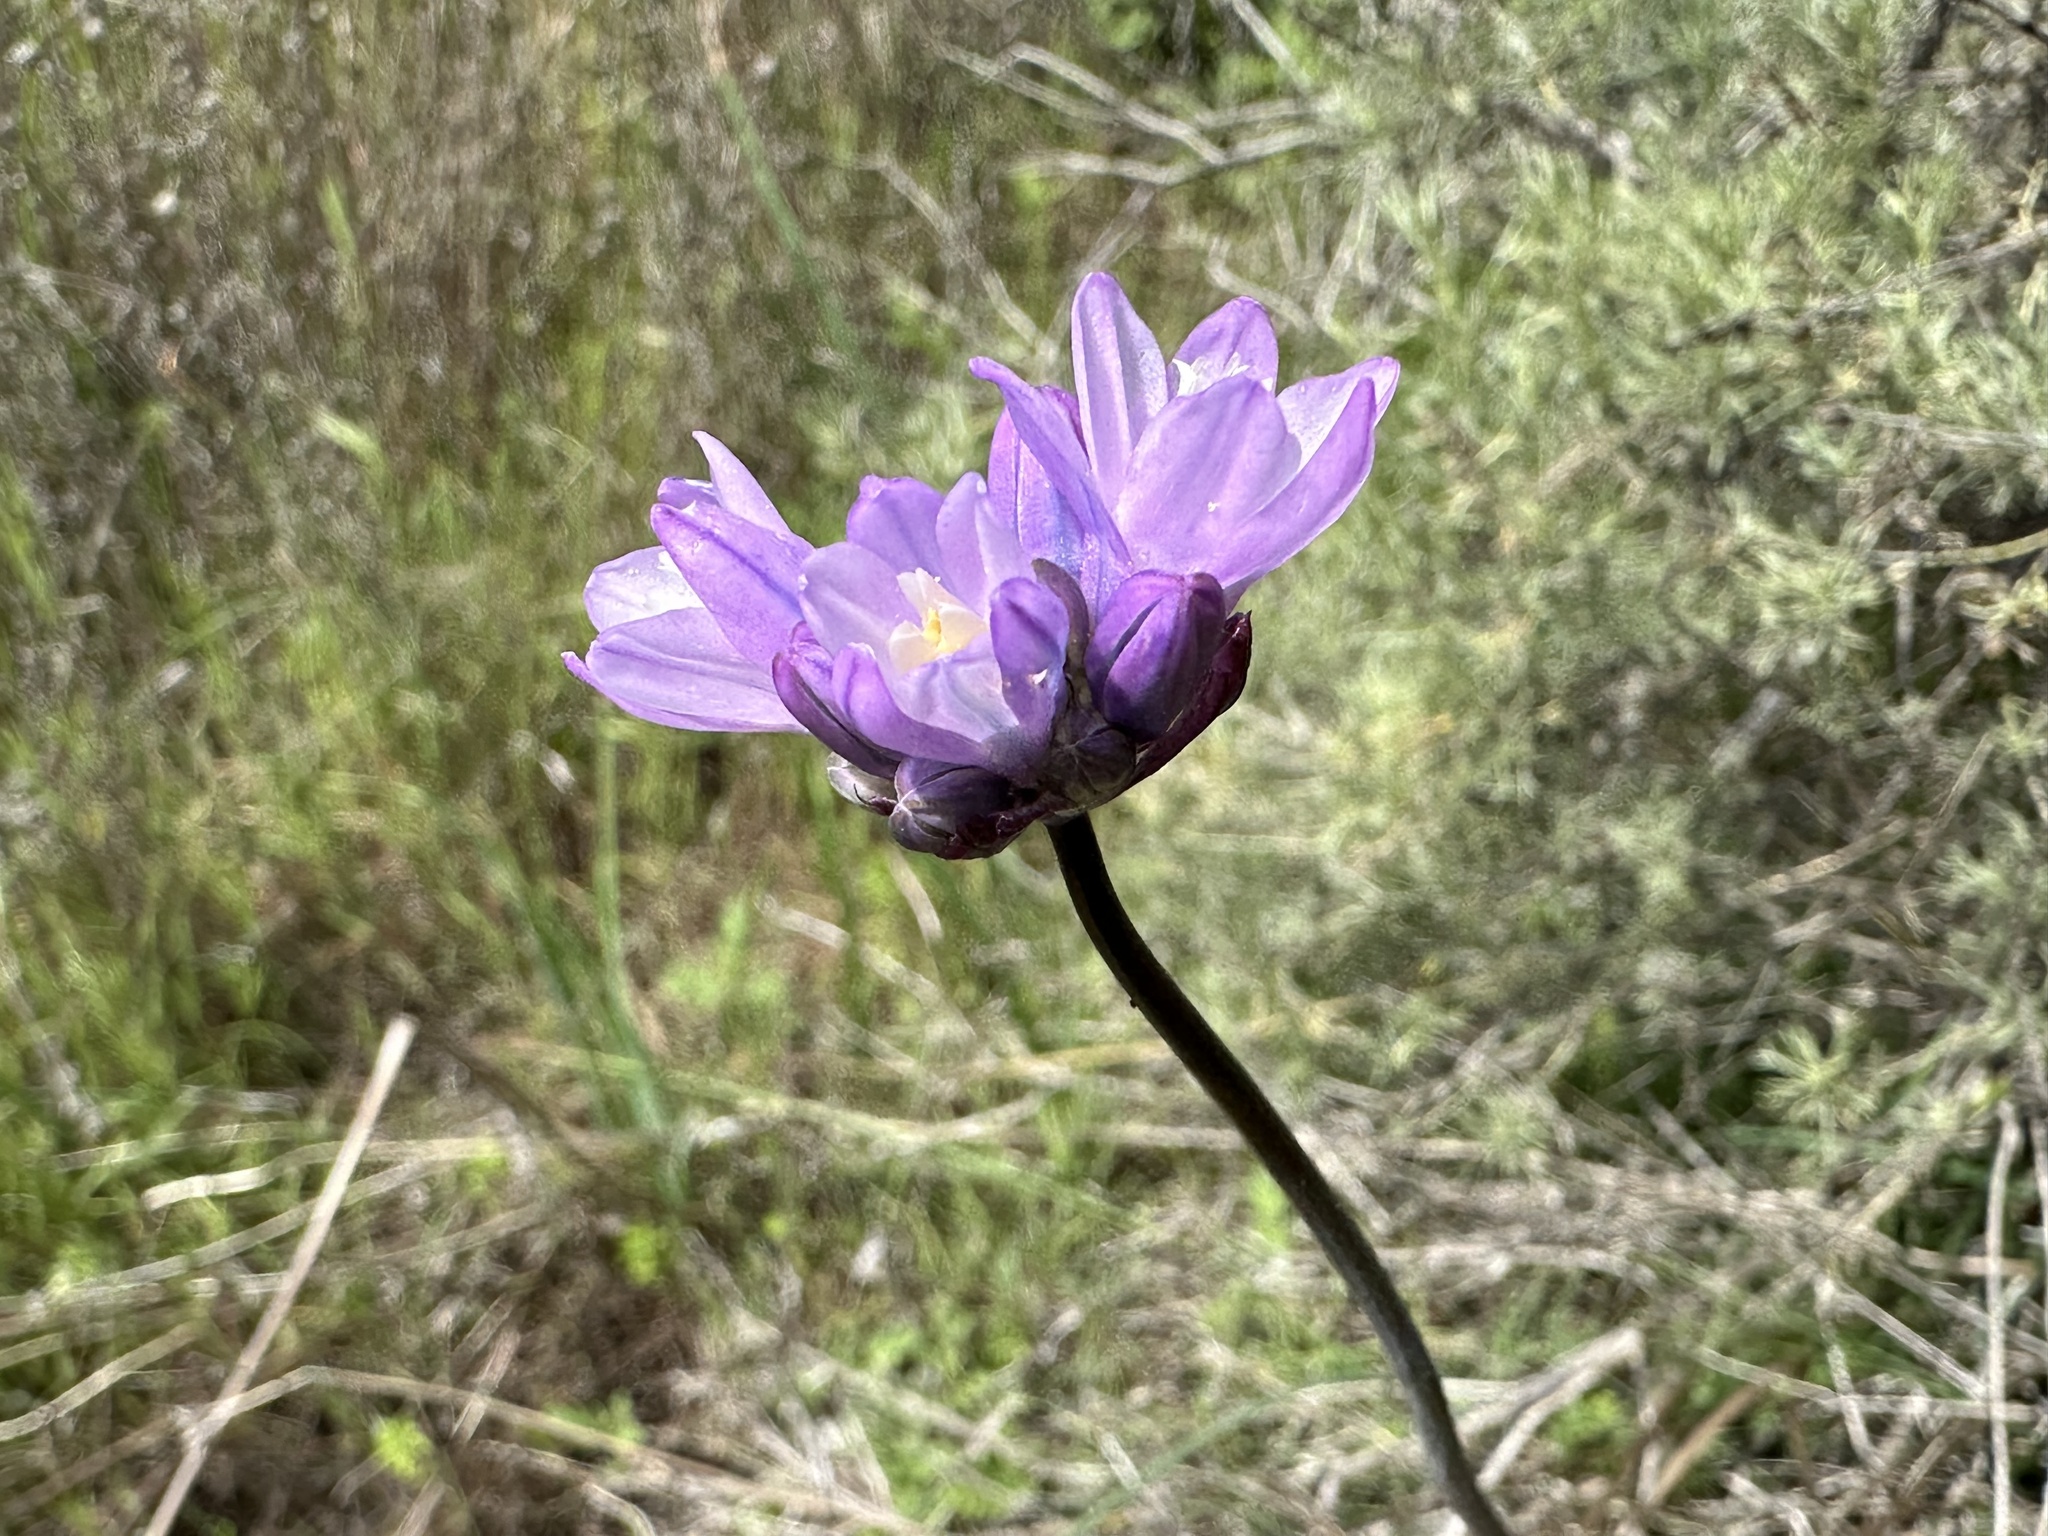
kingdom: Plantae
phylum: Tracheophyta
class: Liliopsida
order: Asparagales
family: Asparagaceae
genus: Dipterostemon
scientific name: Dipterostemon capitatus
